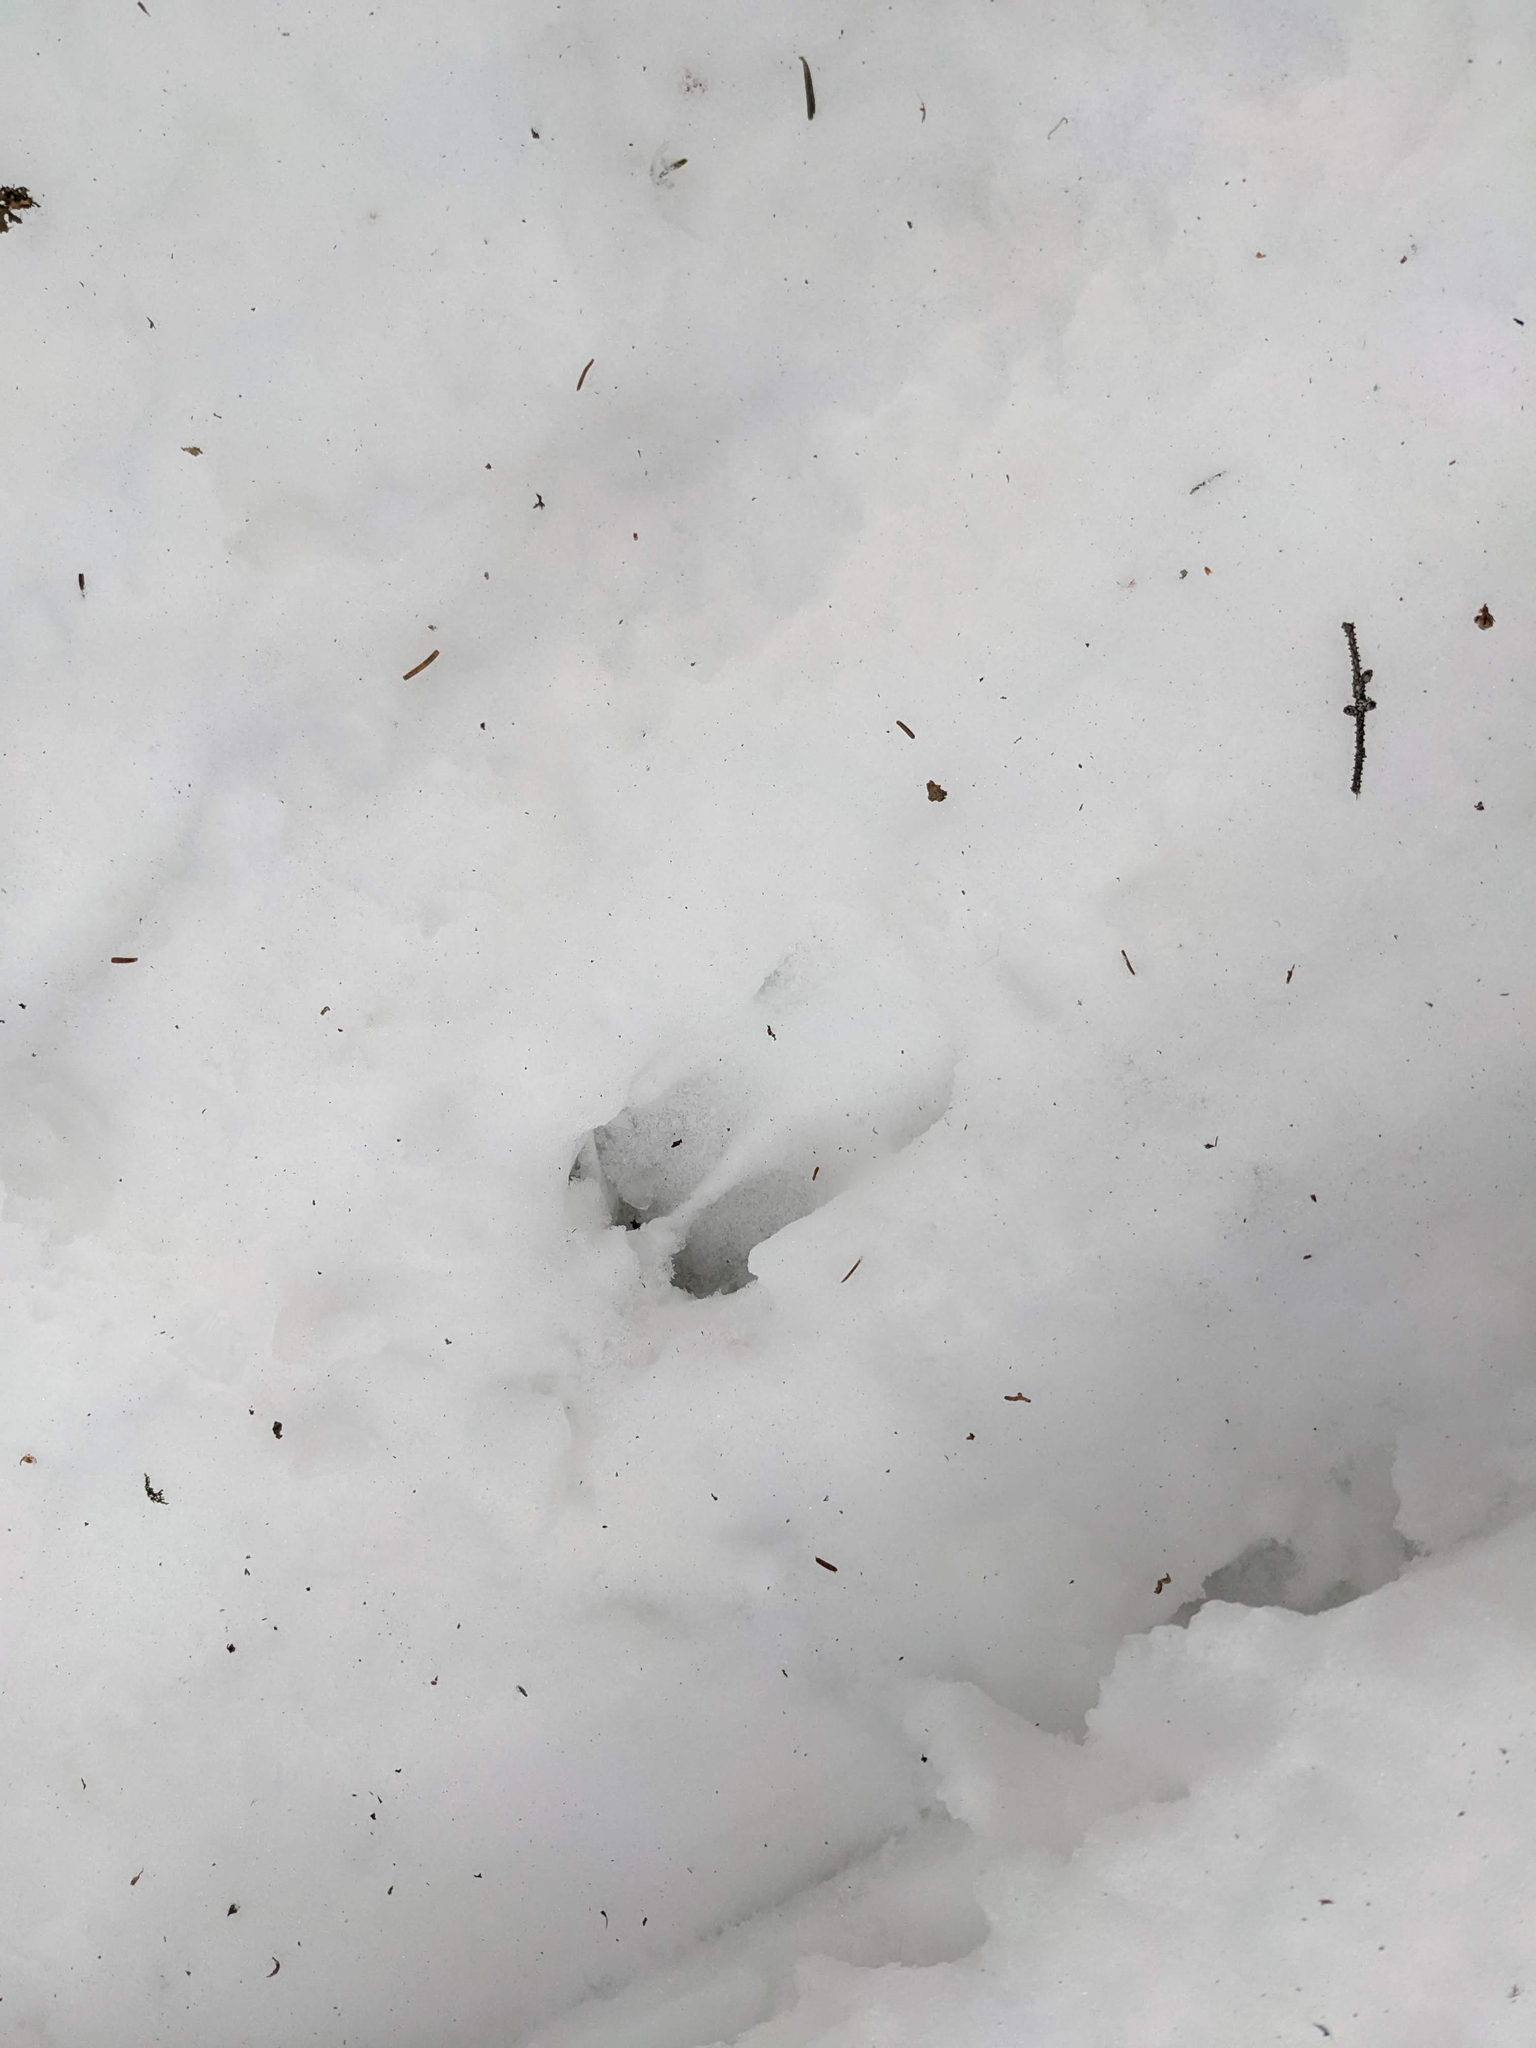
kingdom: Animalia
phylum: Chordata
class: Mammalia
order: Artiodactyla
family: Cervidae
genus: Odocoileus
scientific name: Odocoileus virginianus
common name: White-tailed deer
